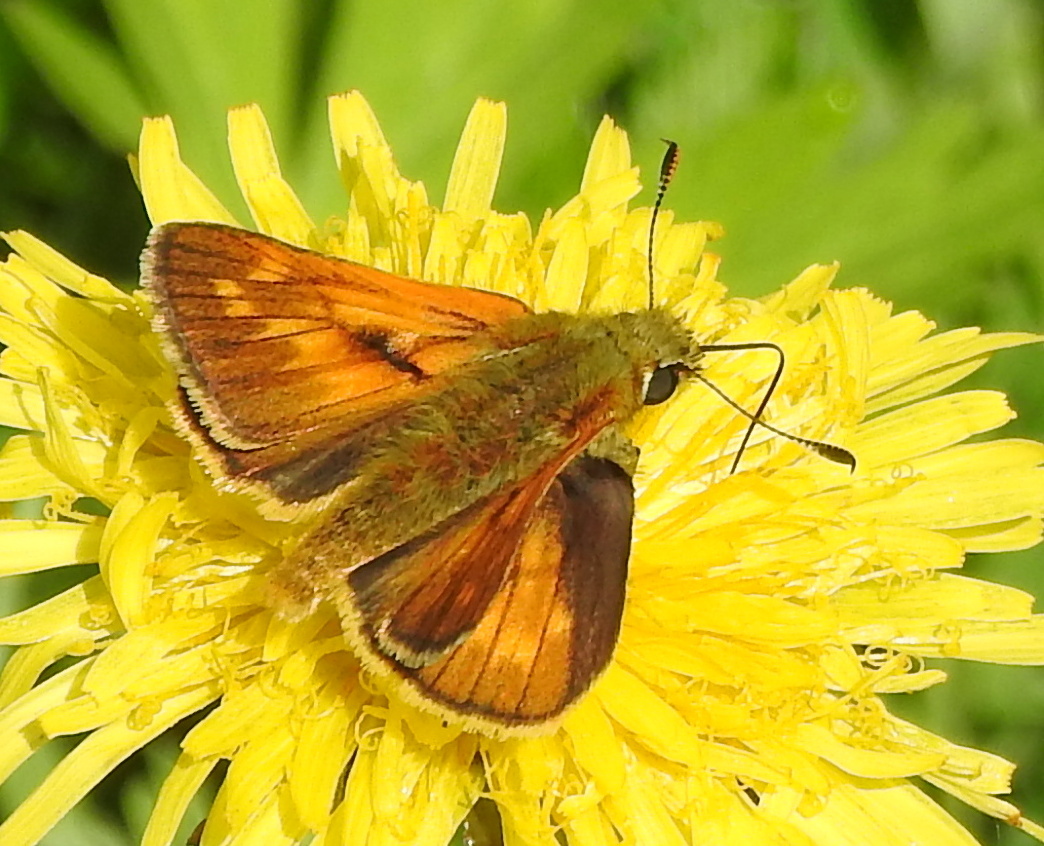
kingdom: Animalia
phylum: Arthropoda
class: Insecta
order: Lepidoptera
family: Hesperiidae
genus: Ochlodes
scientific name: Ochlodes venata
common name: Large skipper
